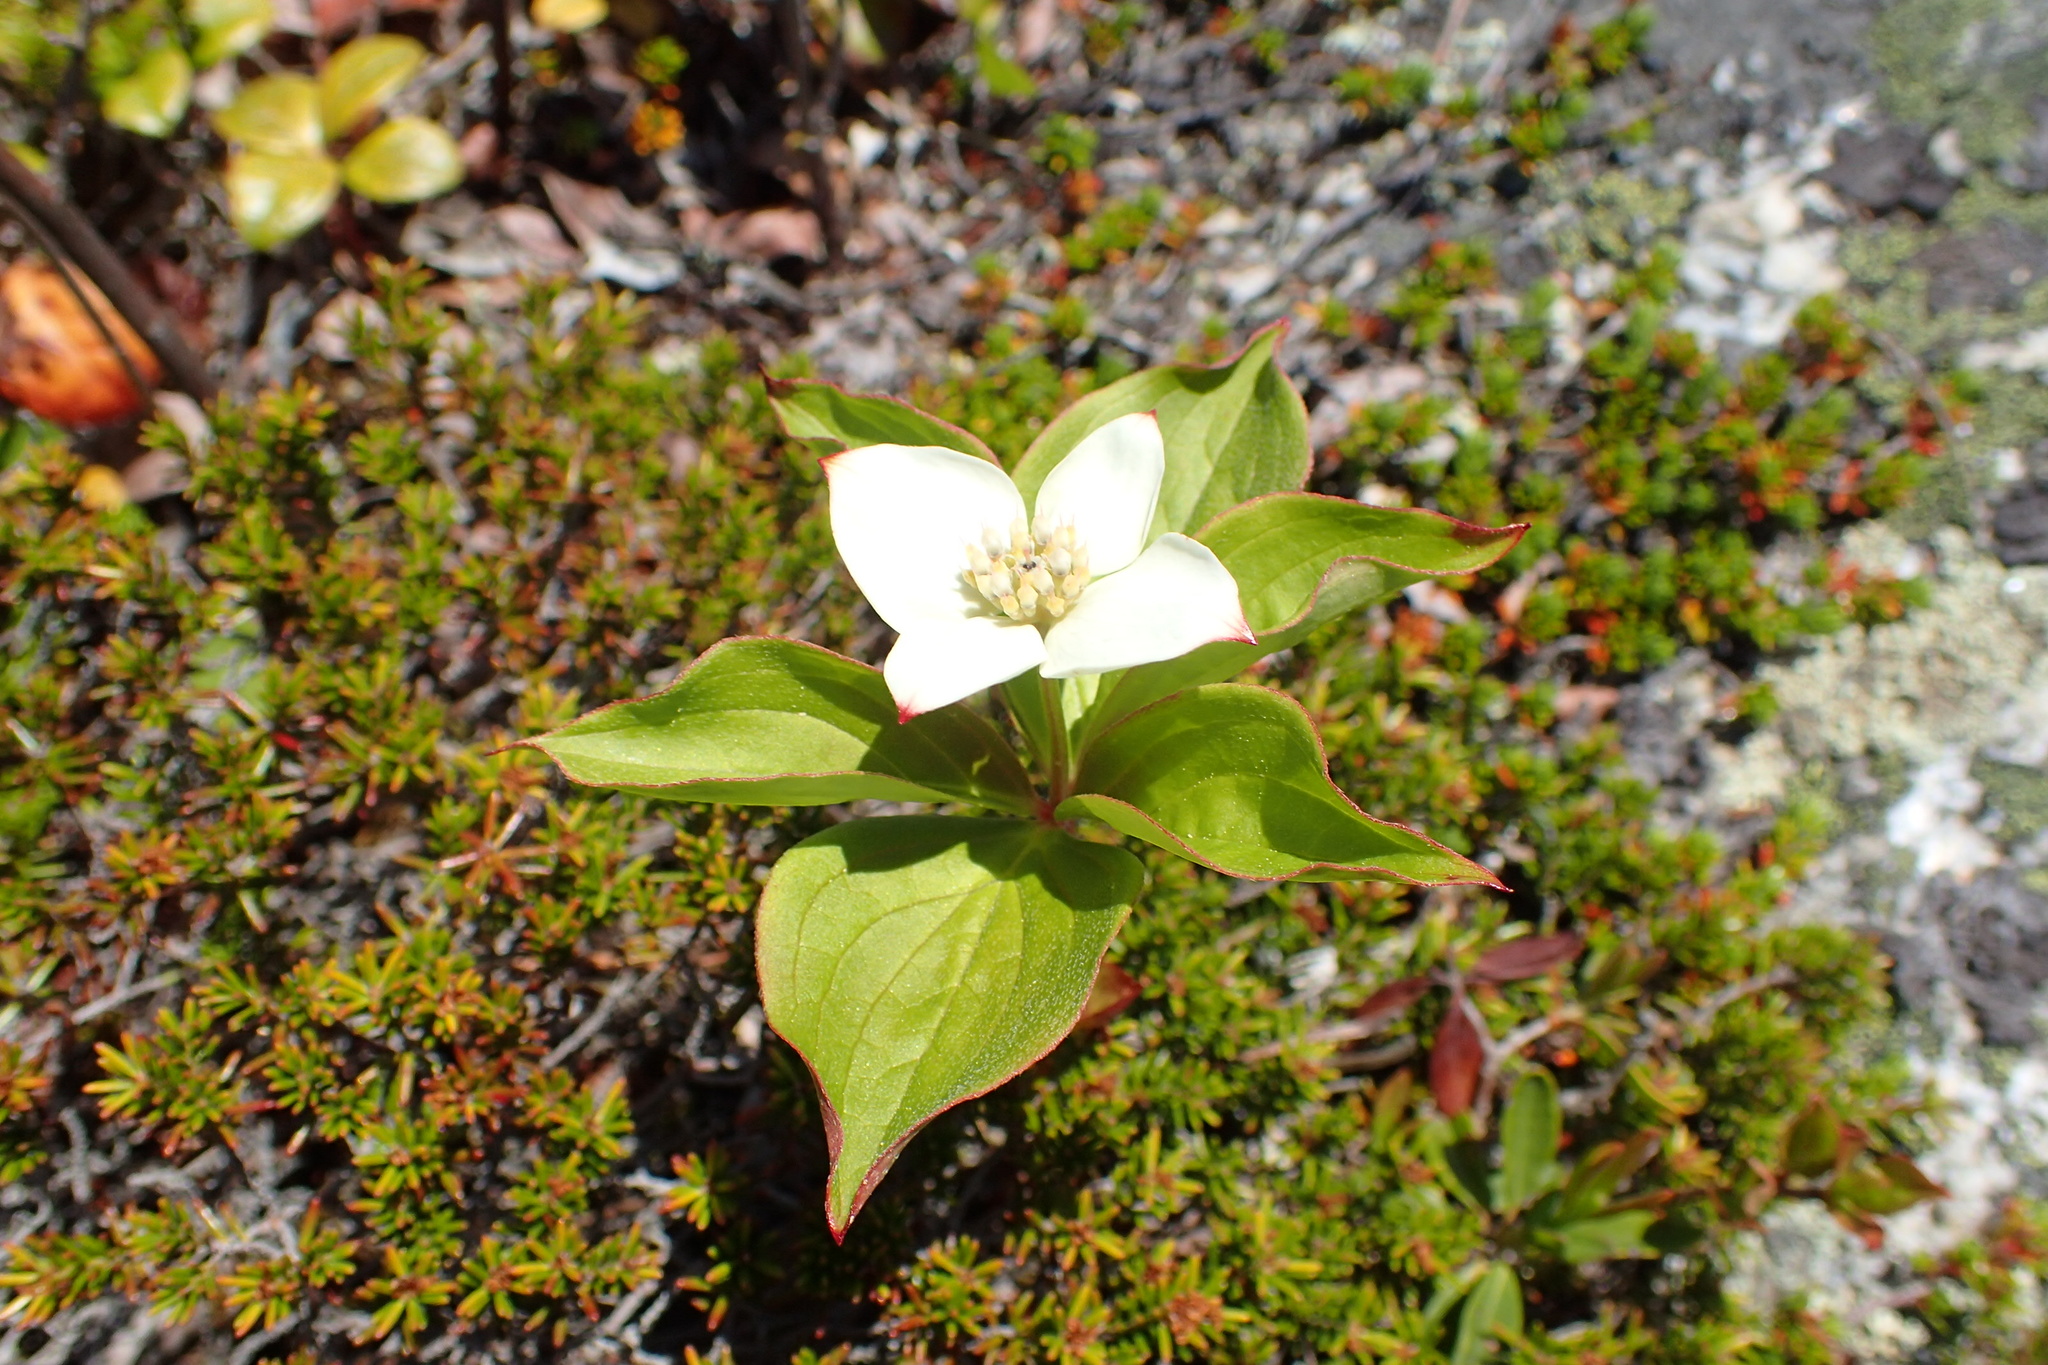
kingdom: Plantae
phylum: Tracheophyta
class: Magnoliopsida
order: Cornales
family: Cornaceae
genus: Cornus
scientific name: Cornus canadensis
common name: Creeping dogwood
